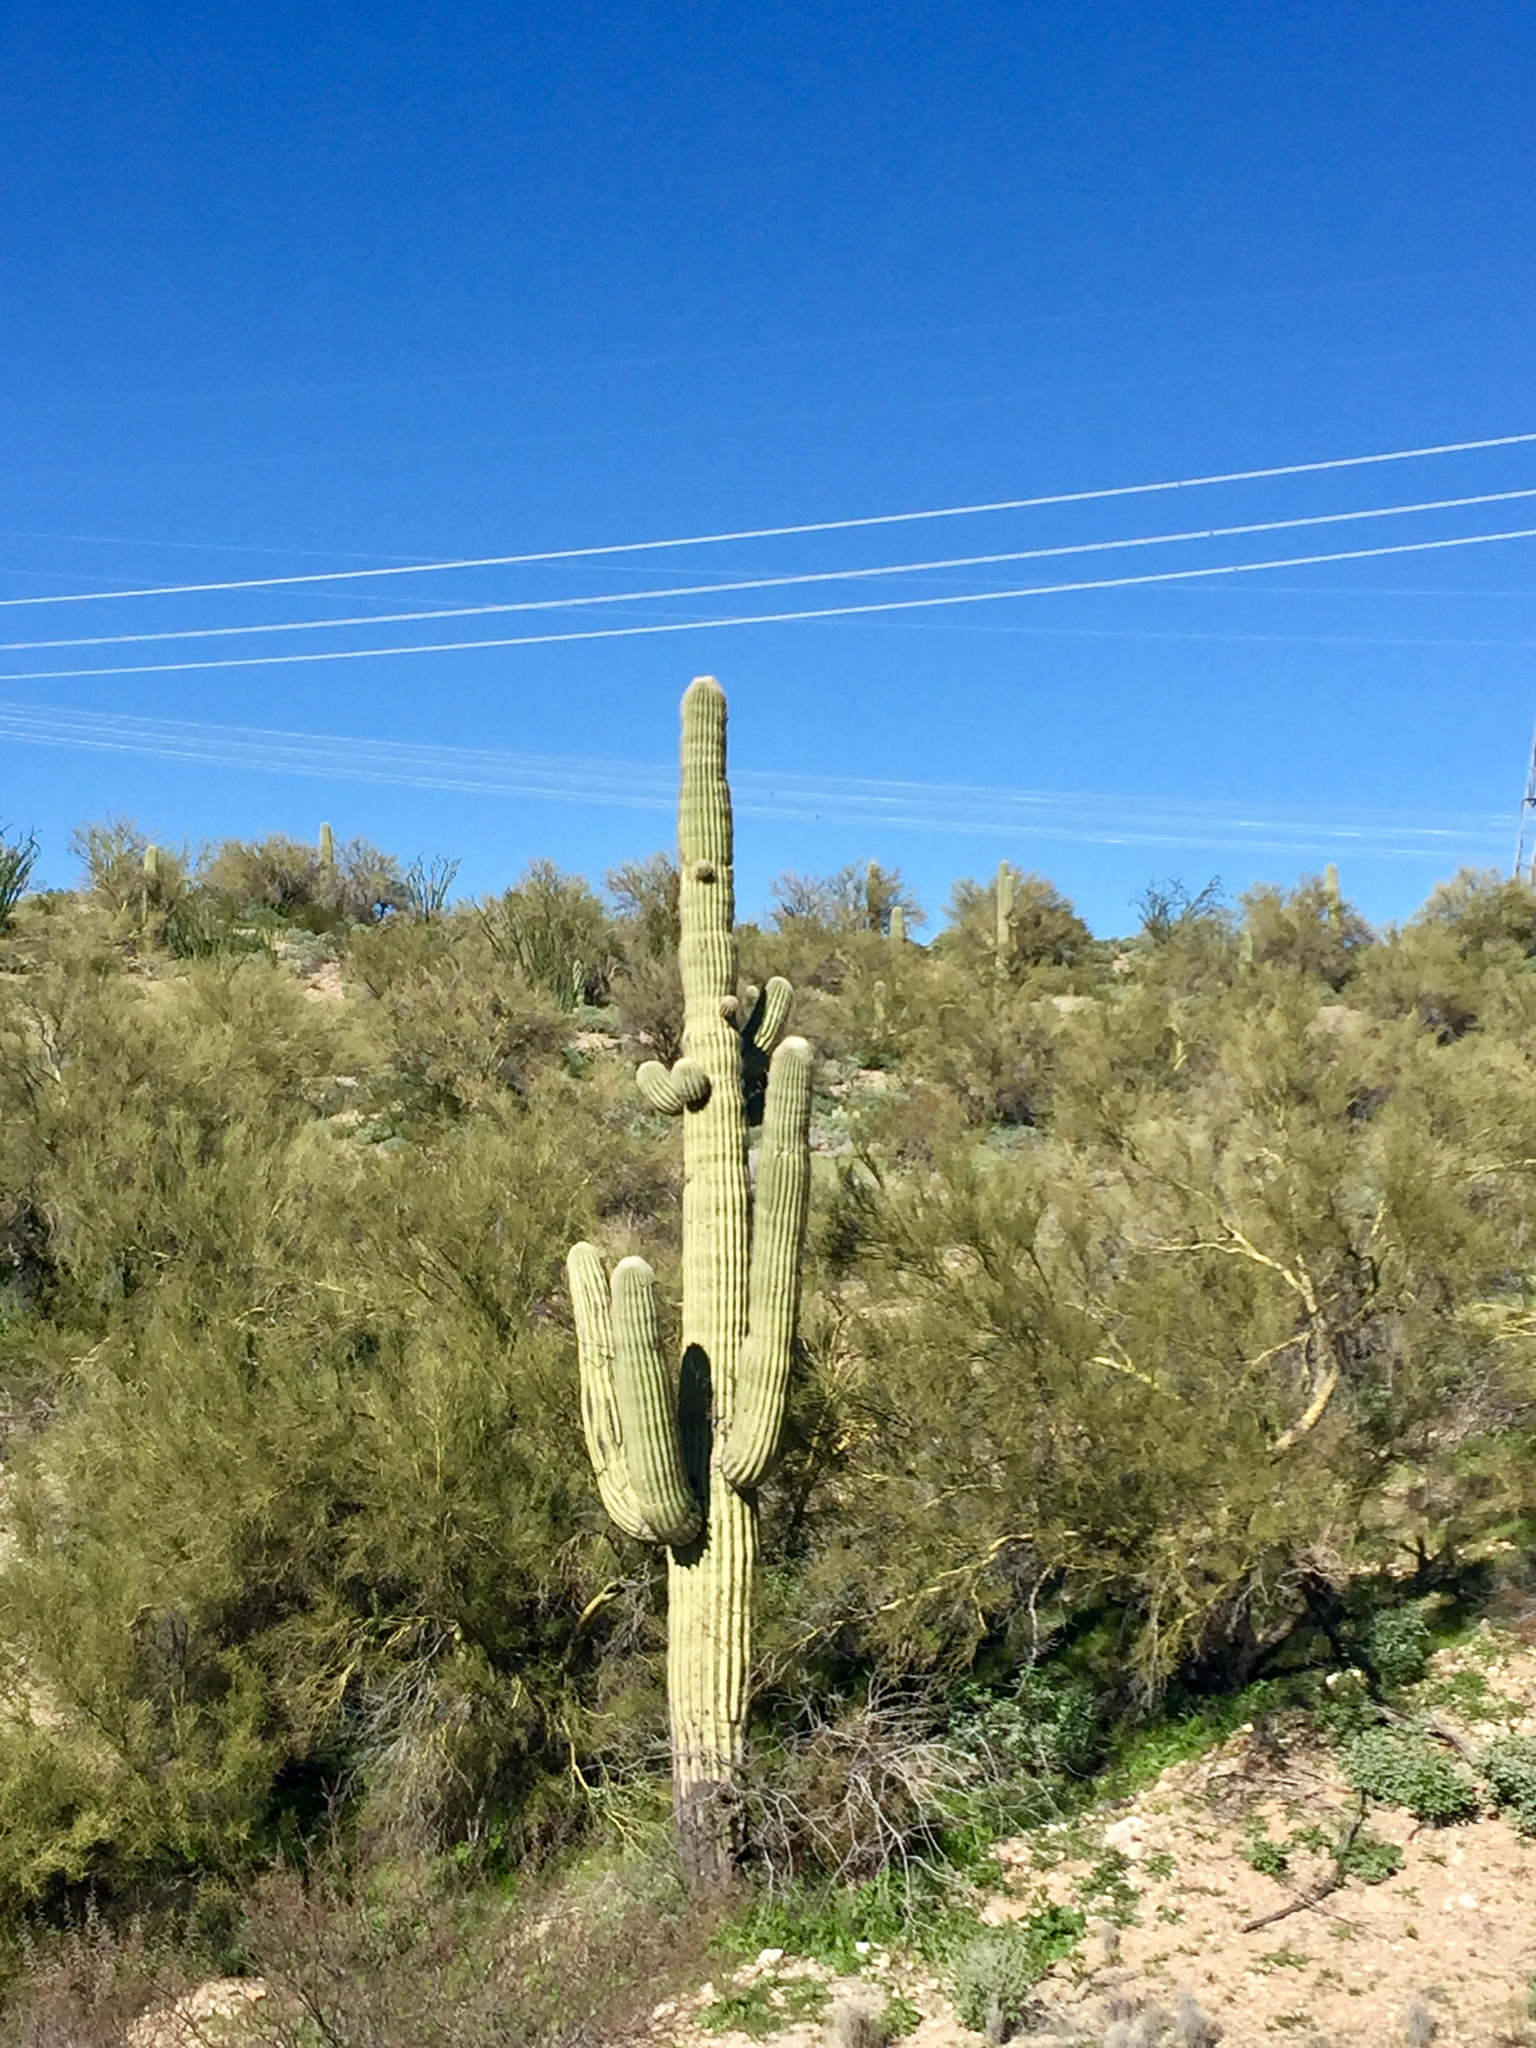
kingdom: Plantae
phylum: Tracheophyta
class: Magnoliopsida
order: Caryophyllales
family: Cactaceae
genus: Carnegiea
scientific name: Carnegiea gigantea
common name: Saguaro
